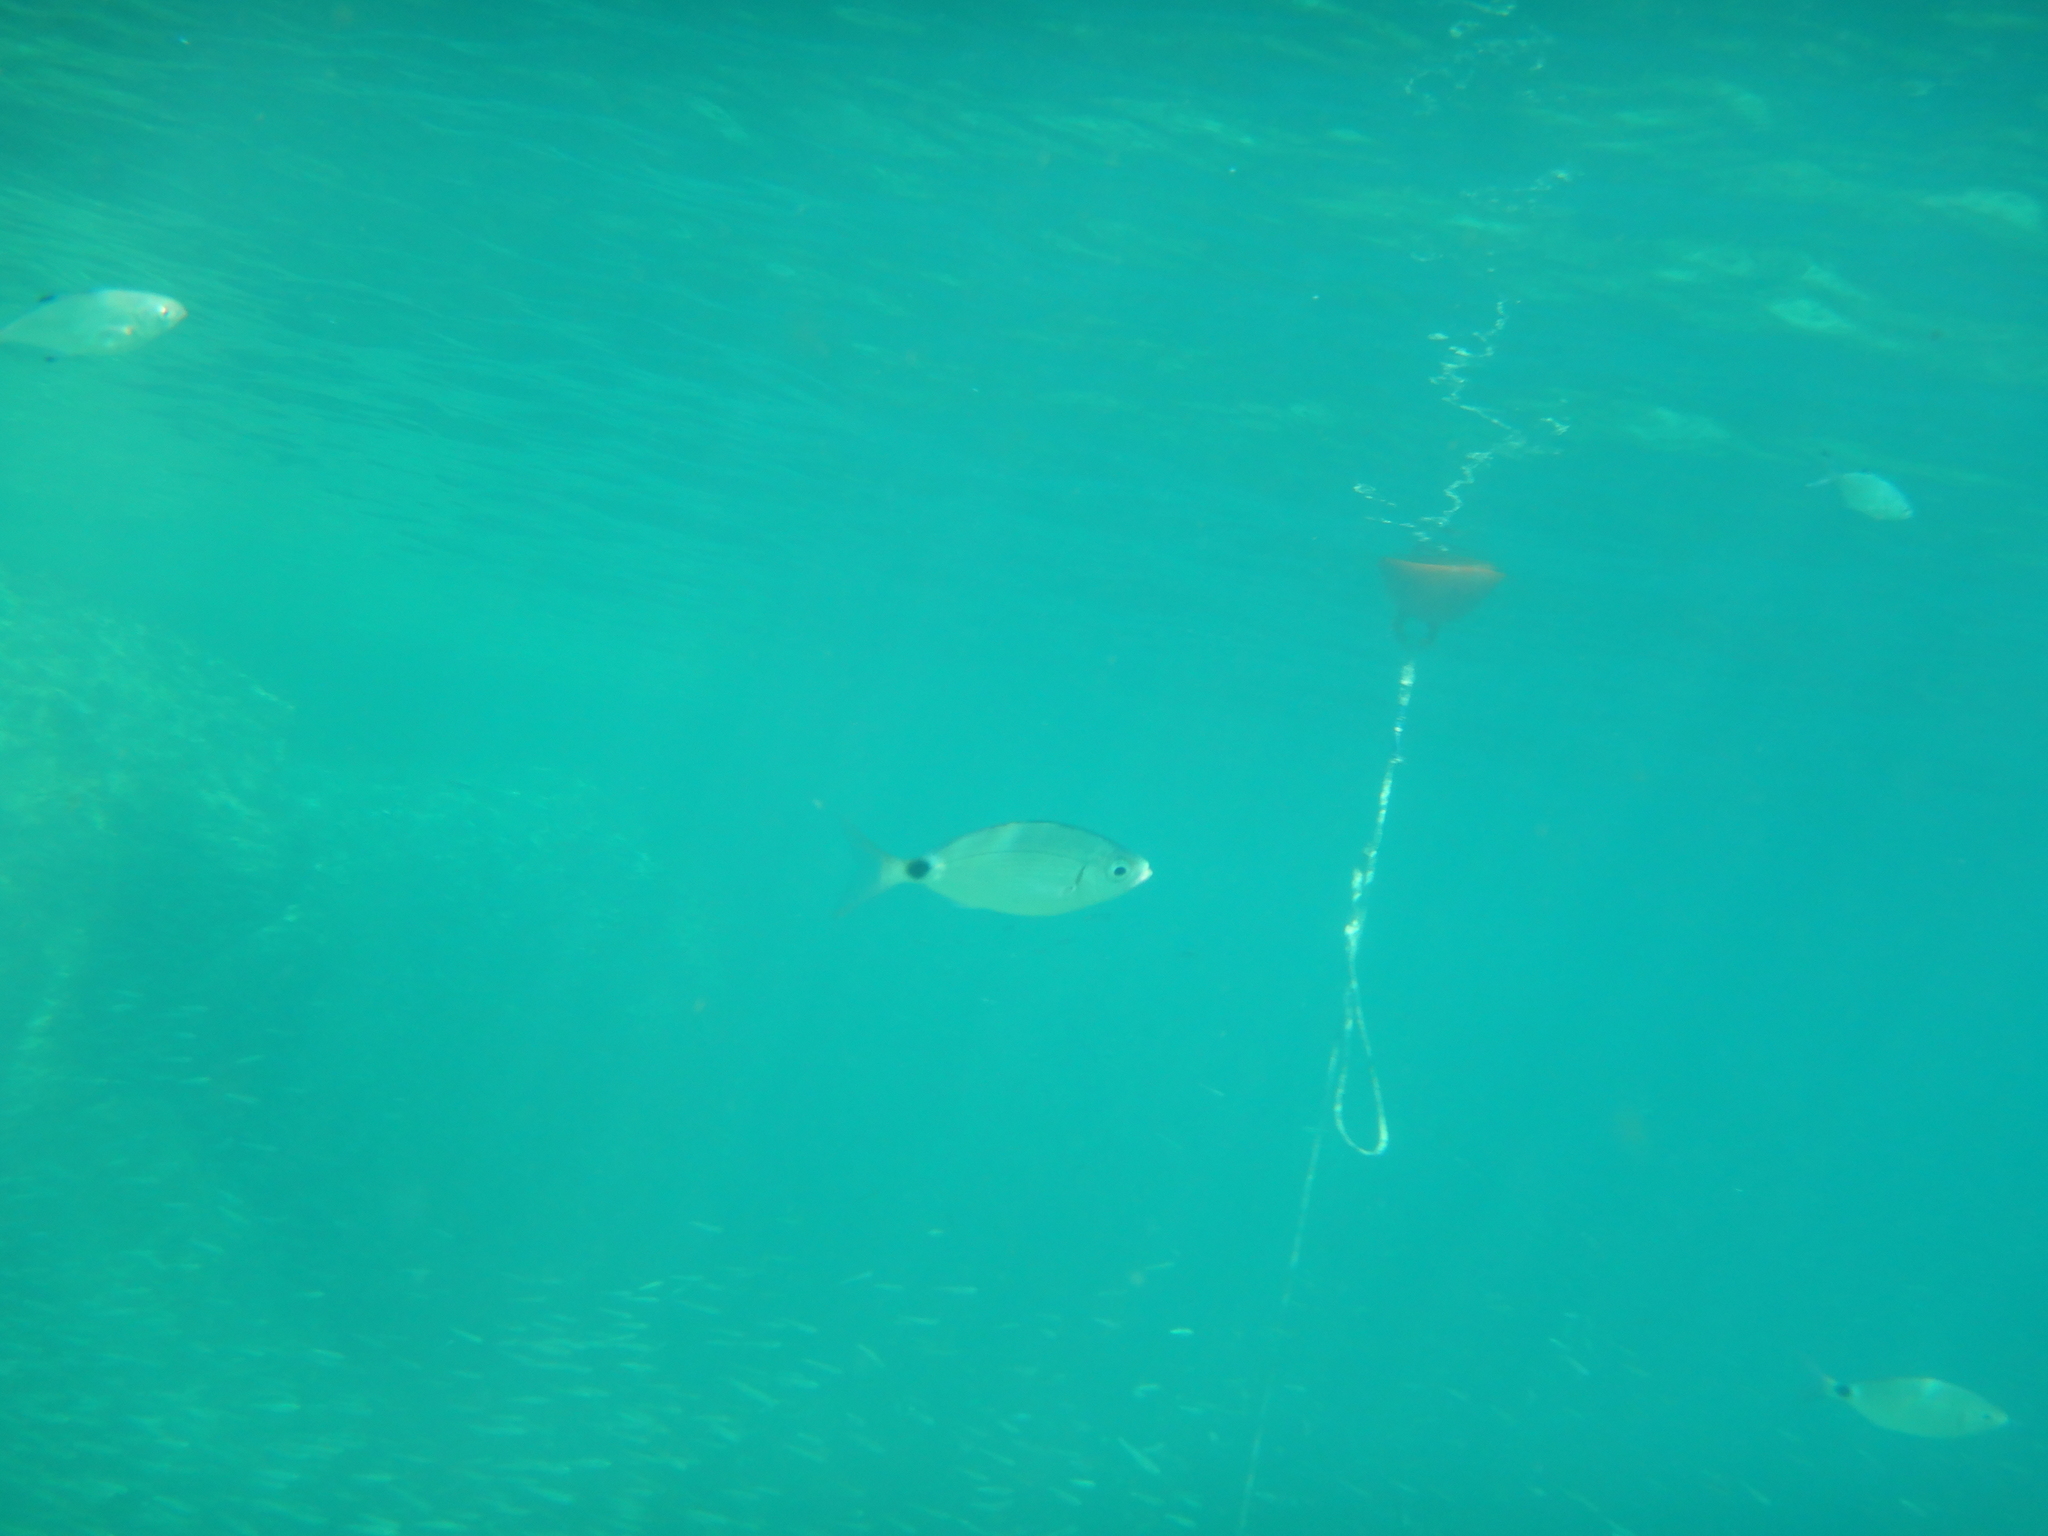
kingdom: Animalia
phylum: Chordata
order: Perciformes
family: Sparidae
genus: Oblada
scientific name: Oblada melanura
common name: Saddled seabream
